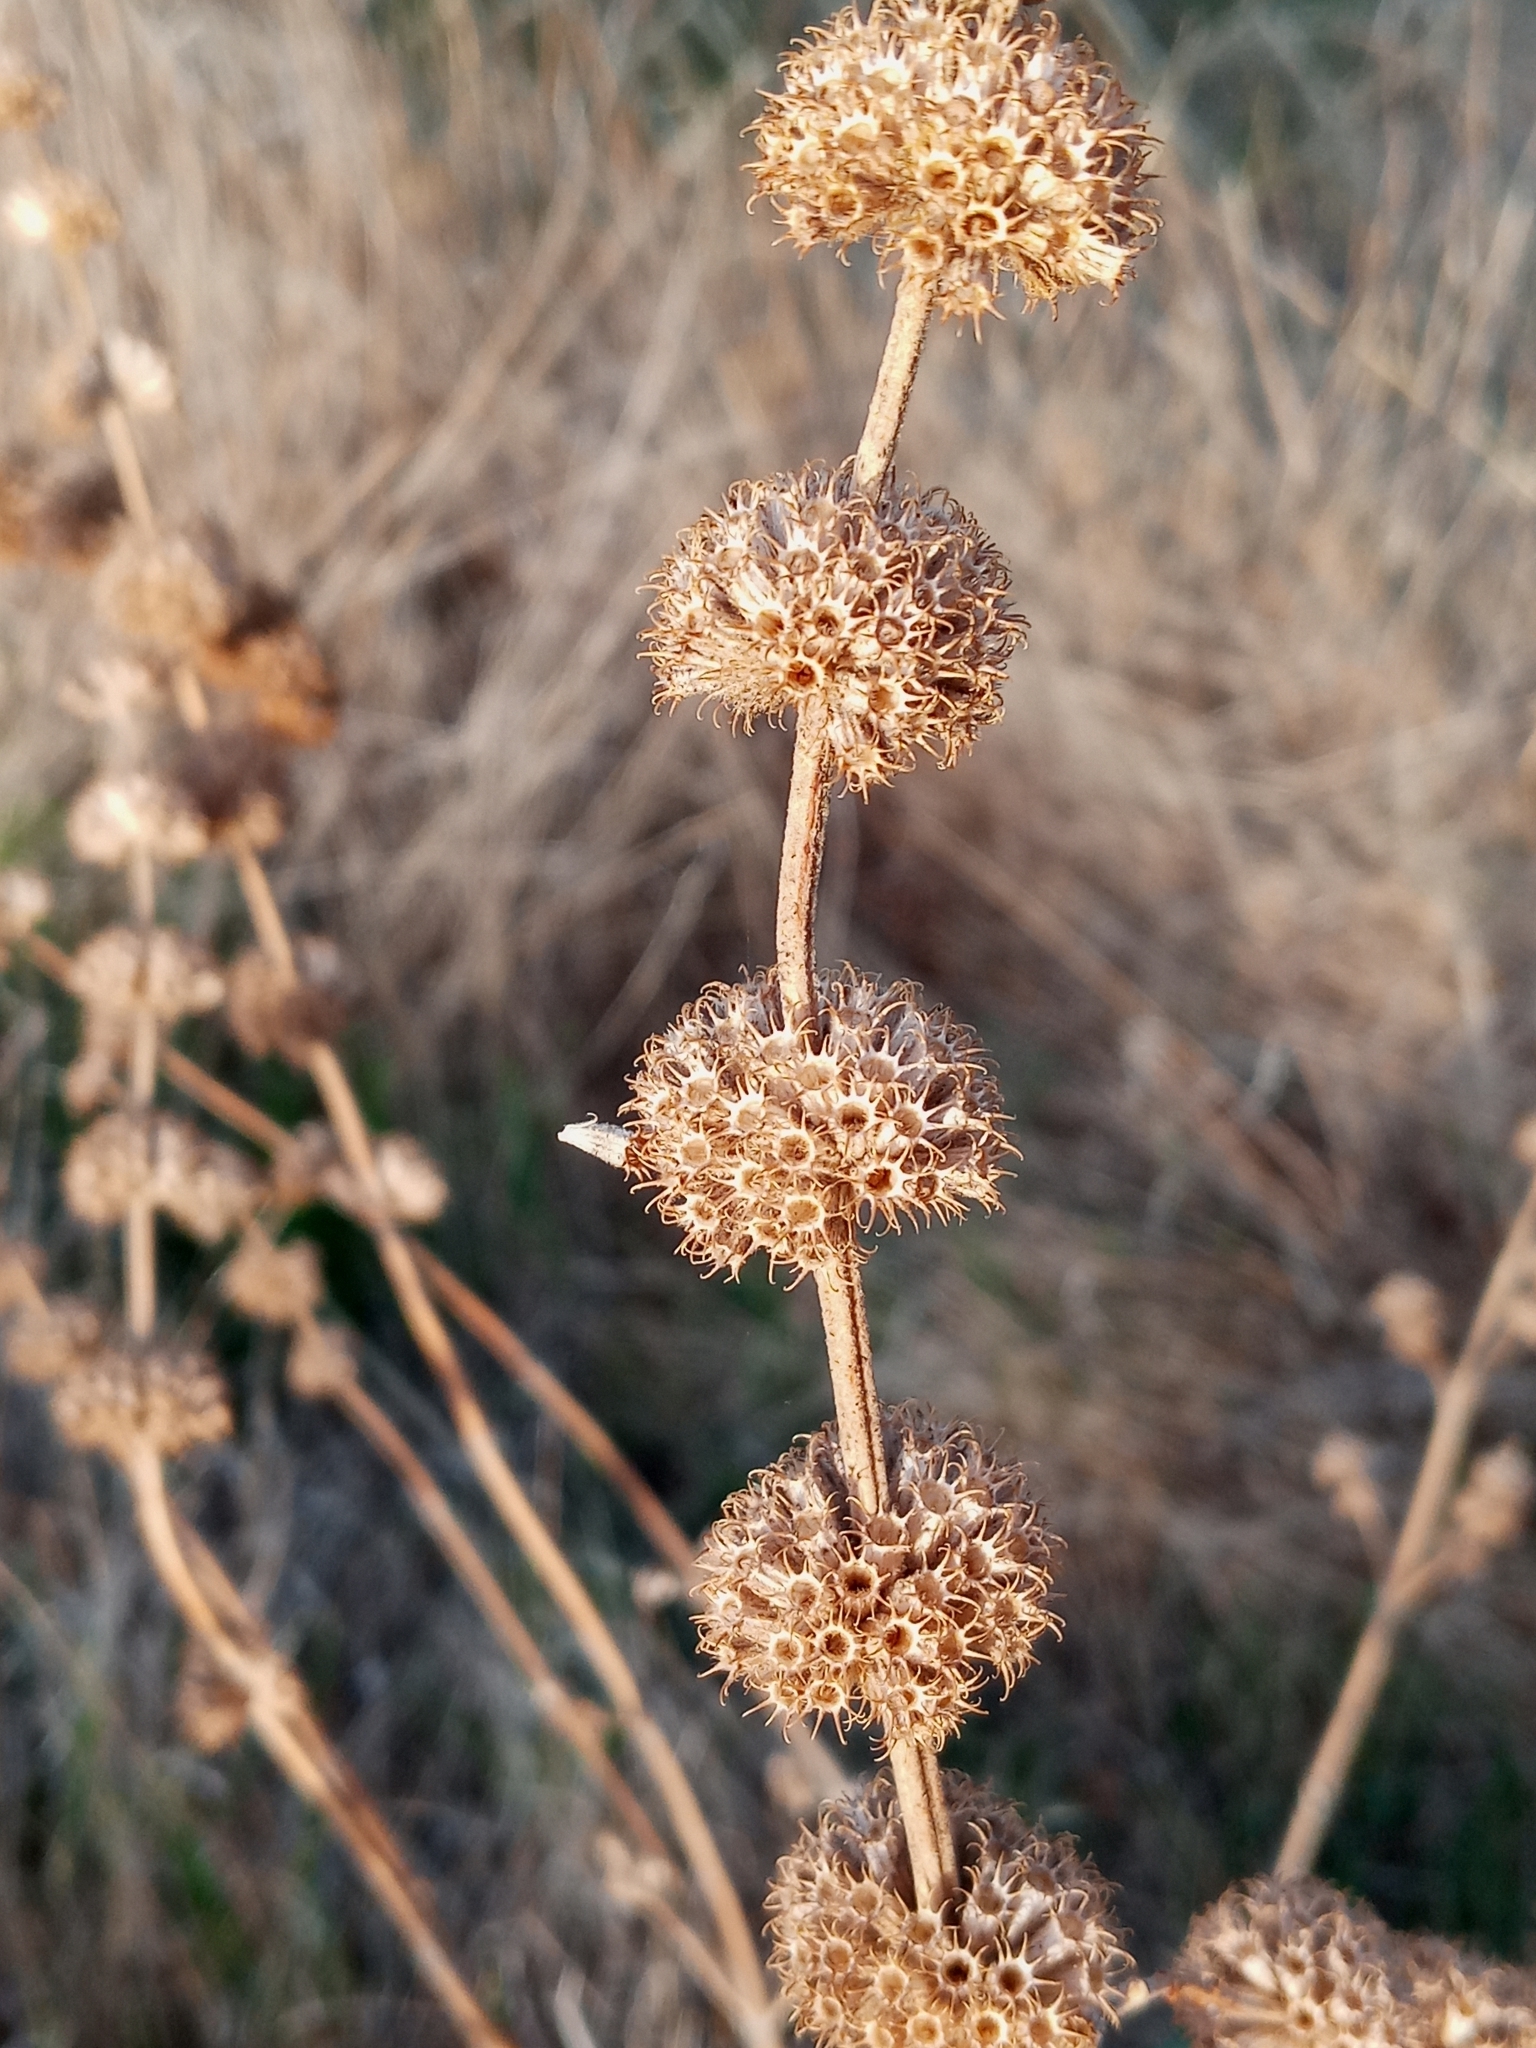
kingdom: Plantae
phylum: Tracheophyta
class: Magnoliopsida
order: Lamiales
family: Lamiaceae
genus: Marrubium
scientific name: Marrubium vulgare
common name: Horehound
